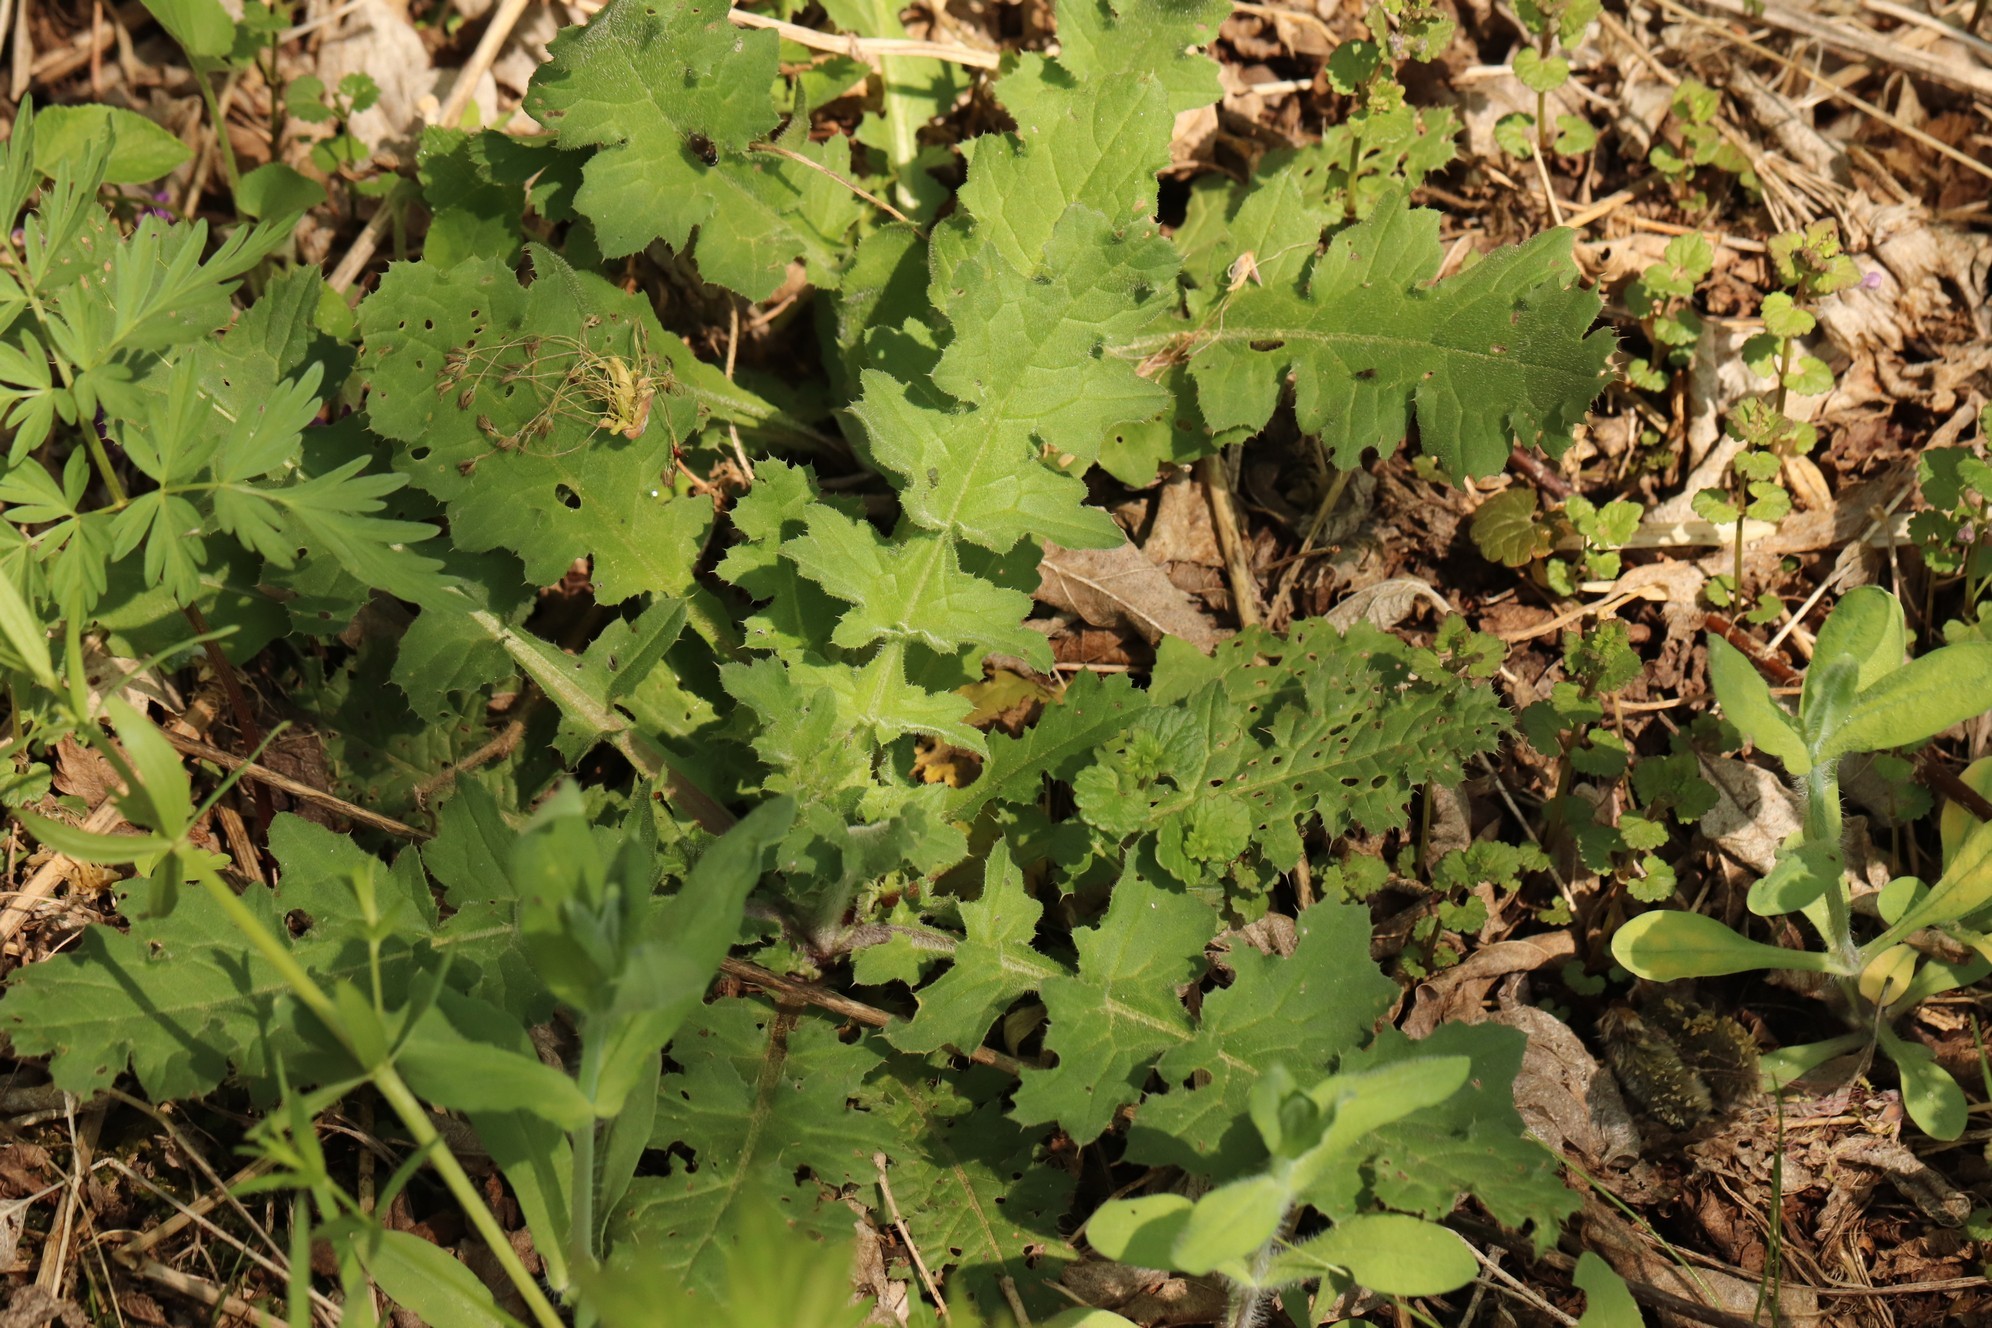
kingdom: Plantae
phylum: Tracheophyta
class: Magnoliopsida
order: Asterales
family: Asteraceae
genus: Carduus
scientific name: Carduus crispus
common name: Welted thistle
